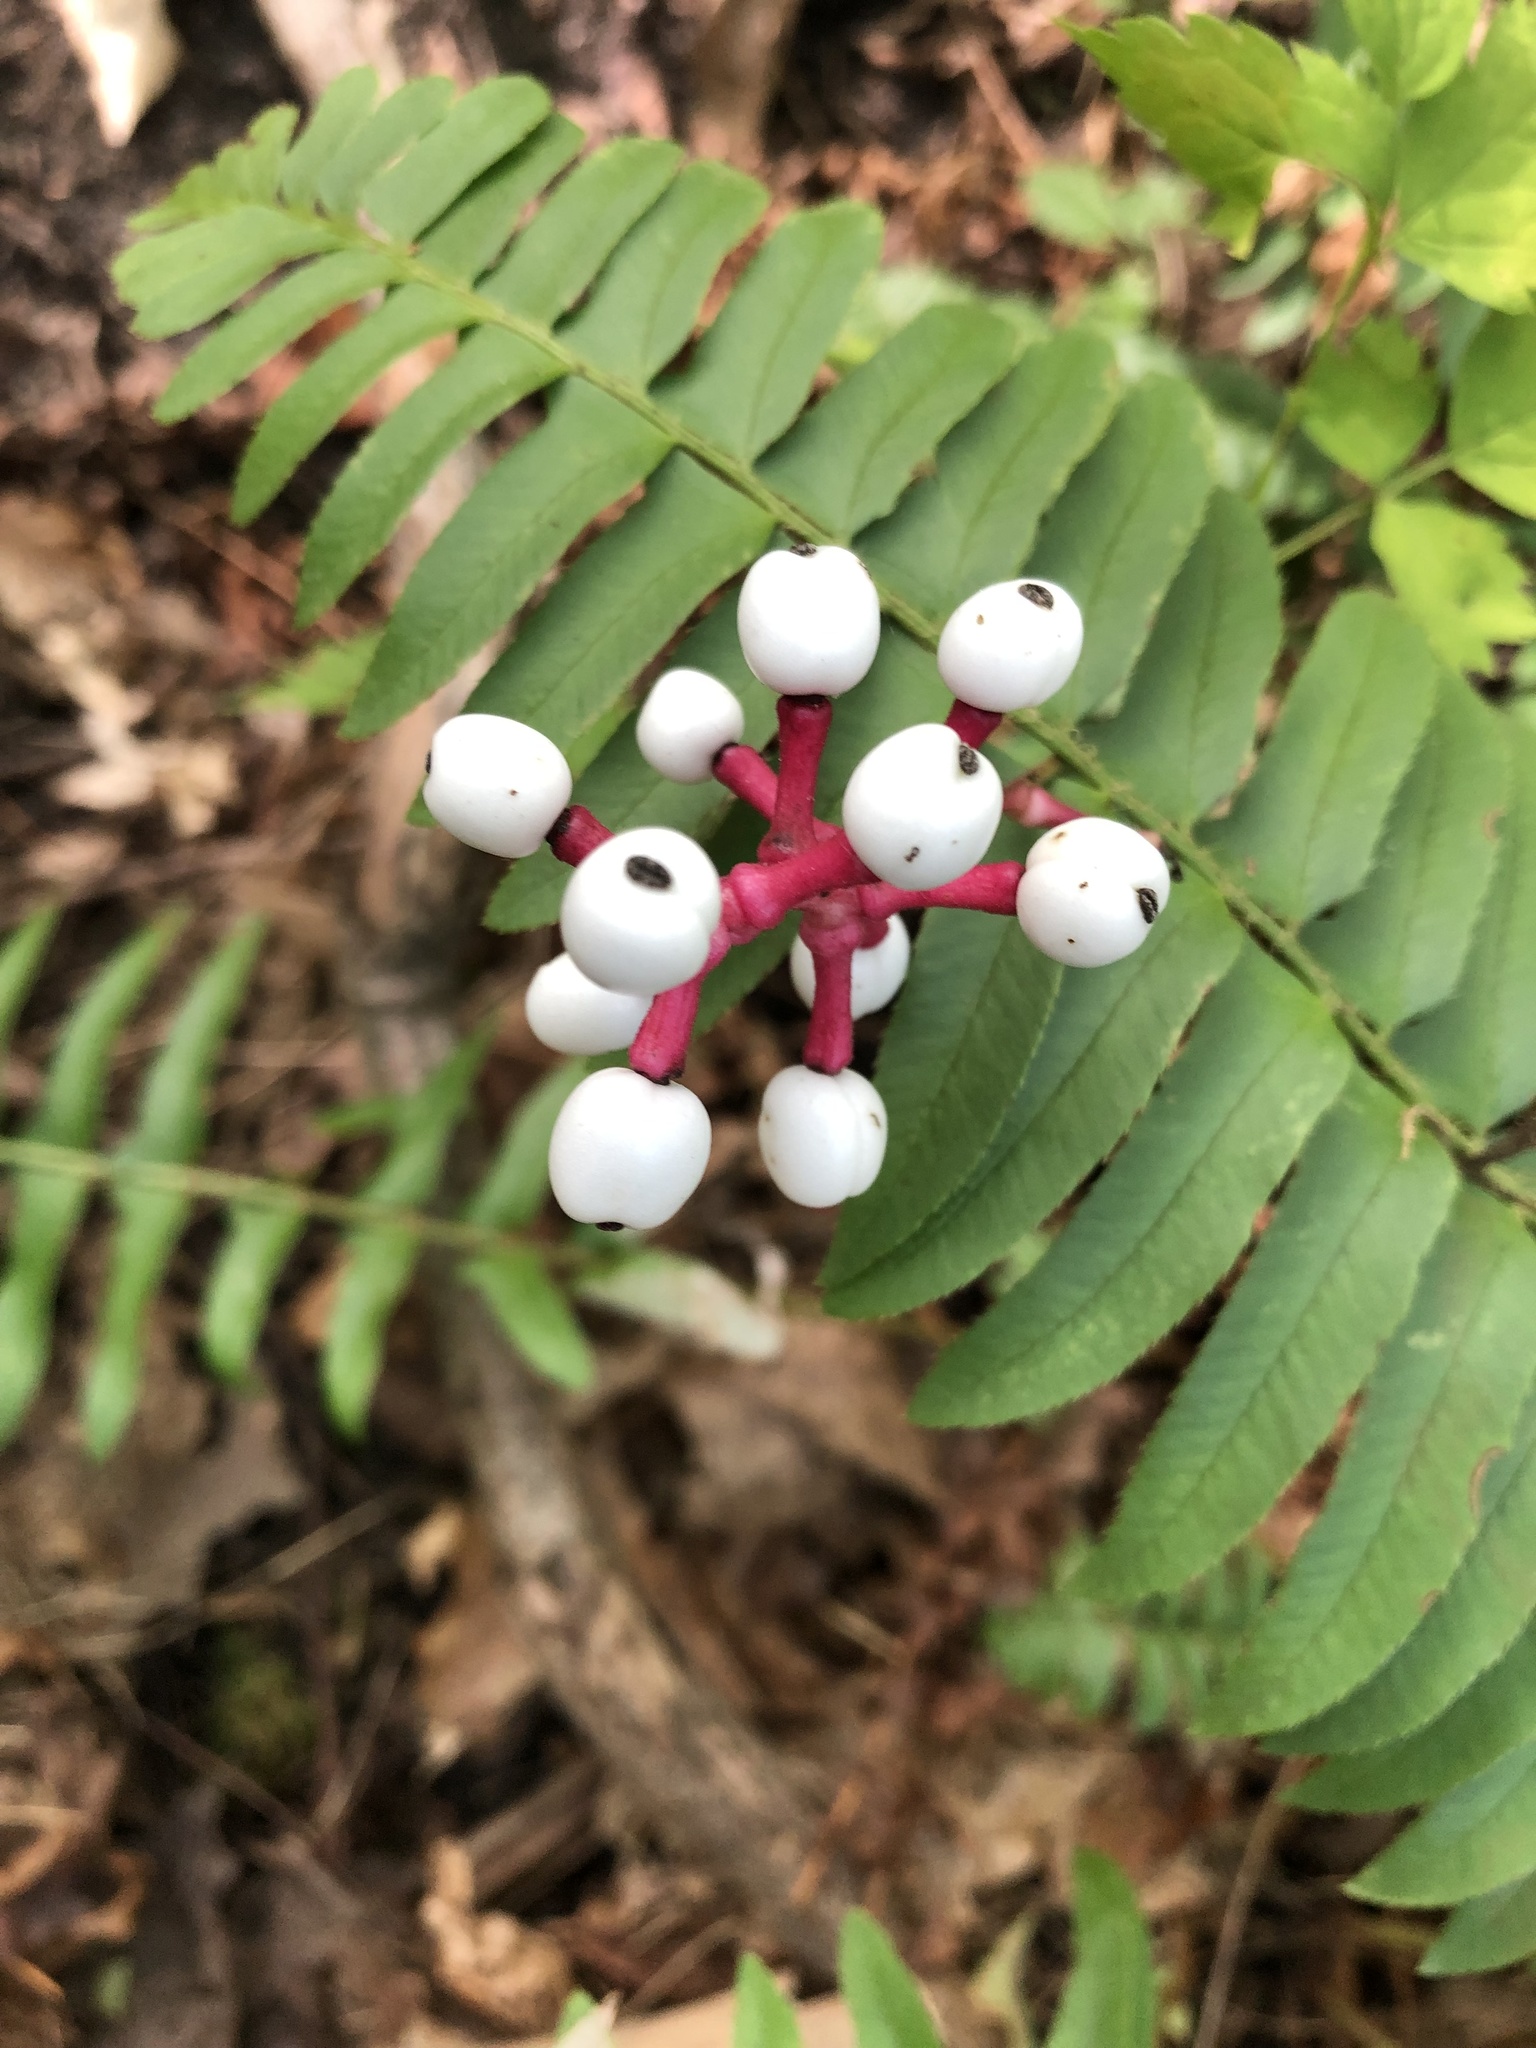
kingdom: Plantae
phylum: Tracheophyta
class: Magnoliopsida
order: Ranunculales
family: Ranunculaceae
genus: Actaea
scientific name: Actaea pachypoda
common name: Doll's-eyes
